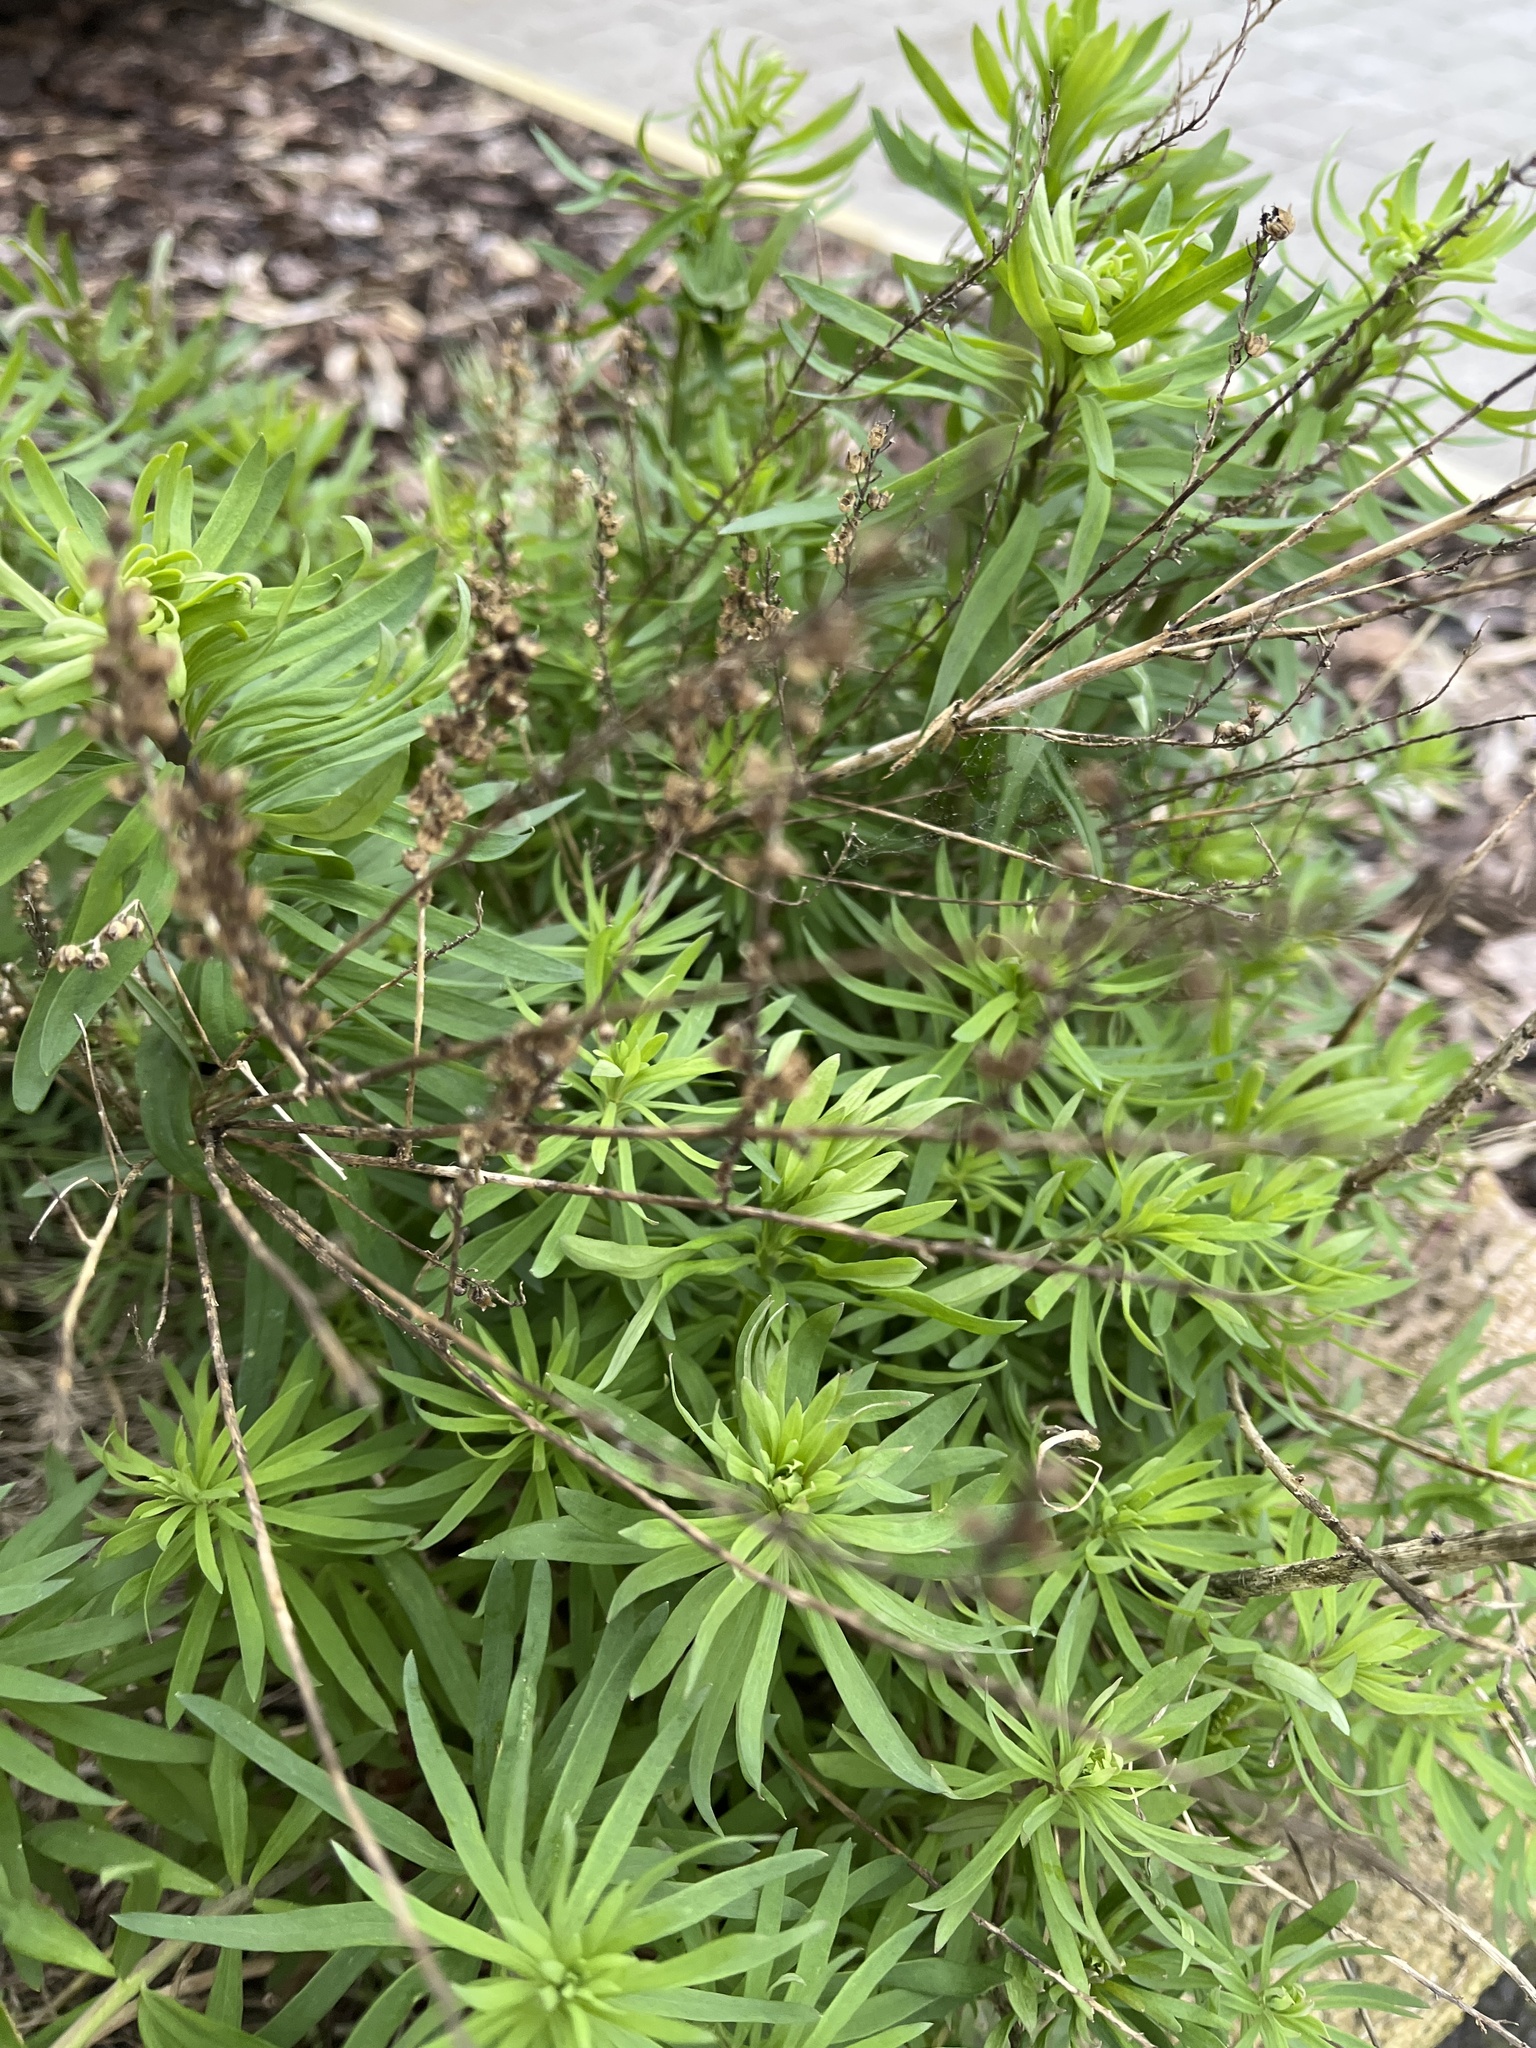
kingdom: Plantae
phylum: Tracheophyta
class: Magnoliopsida
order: Lamiales
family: Plantaginaceae
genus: Linaria
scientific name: Linaria purpurea
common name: Purple toadflax
